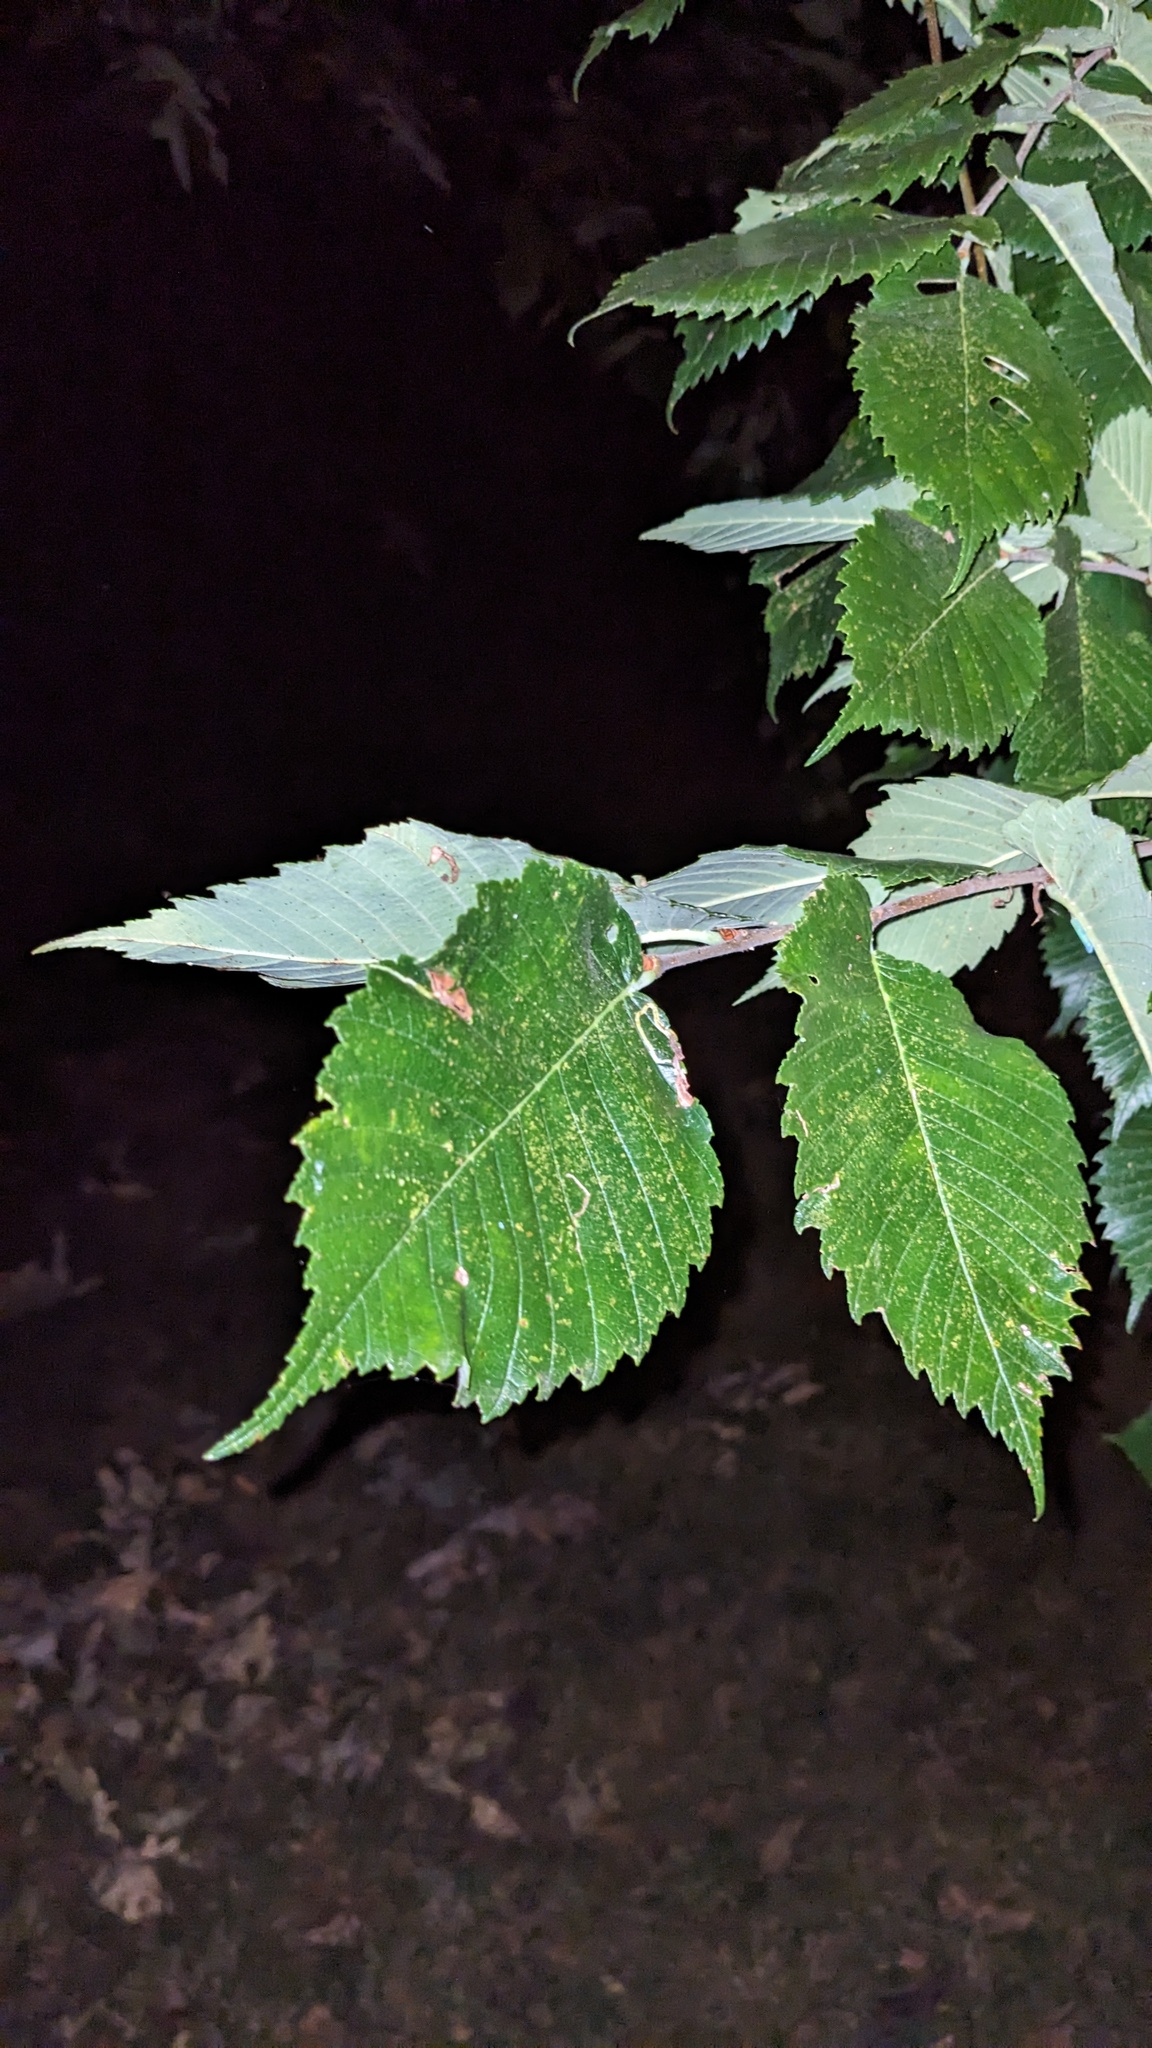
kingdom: Plantae
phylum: Tracheophyta
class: Magnoliopsida
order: Rosales
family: Ulmaceae
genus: Ulmus
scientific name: Ulmus americana
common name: American elm
